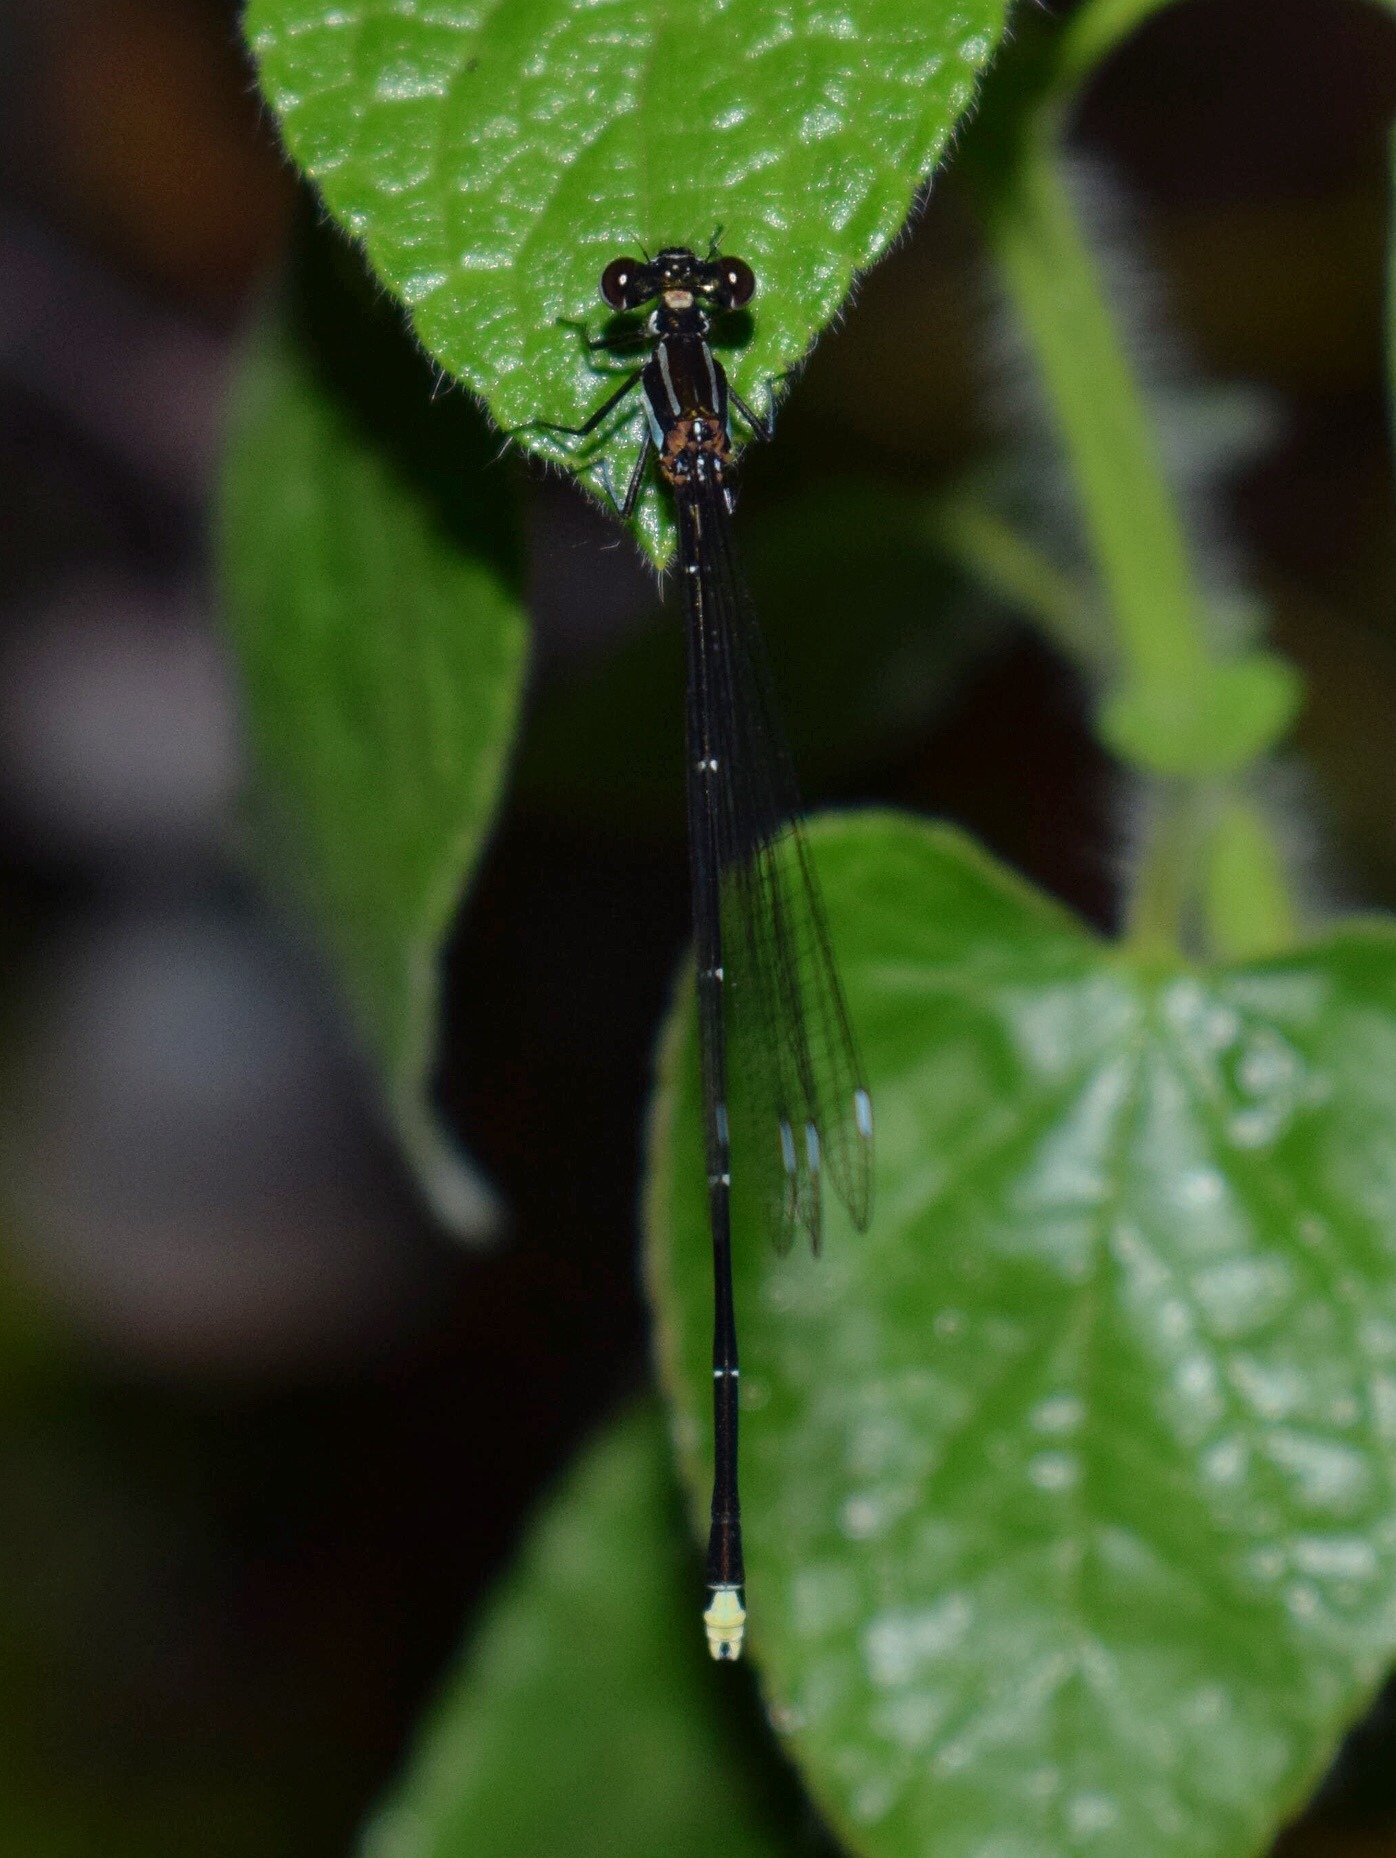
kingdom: Animalia
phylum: Arthropoda
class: Insecta
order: Odonata
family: Platycnemididae
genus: Allocnemis
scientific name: Allocnemis leucosticta
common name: Goldtail
